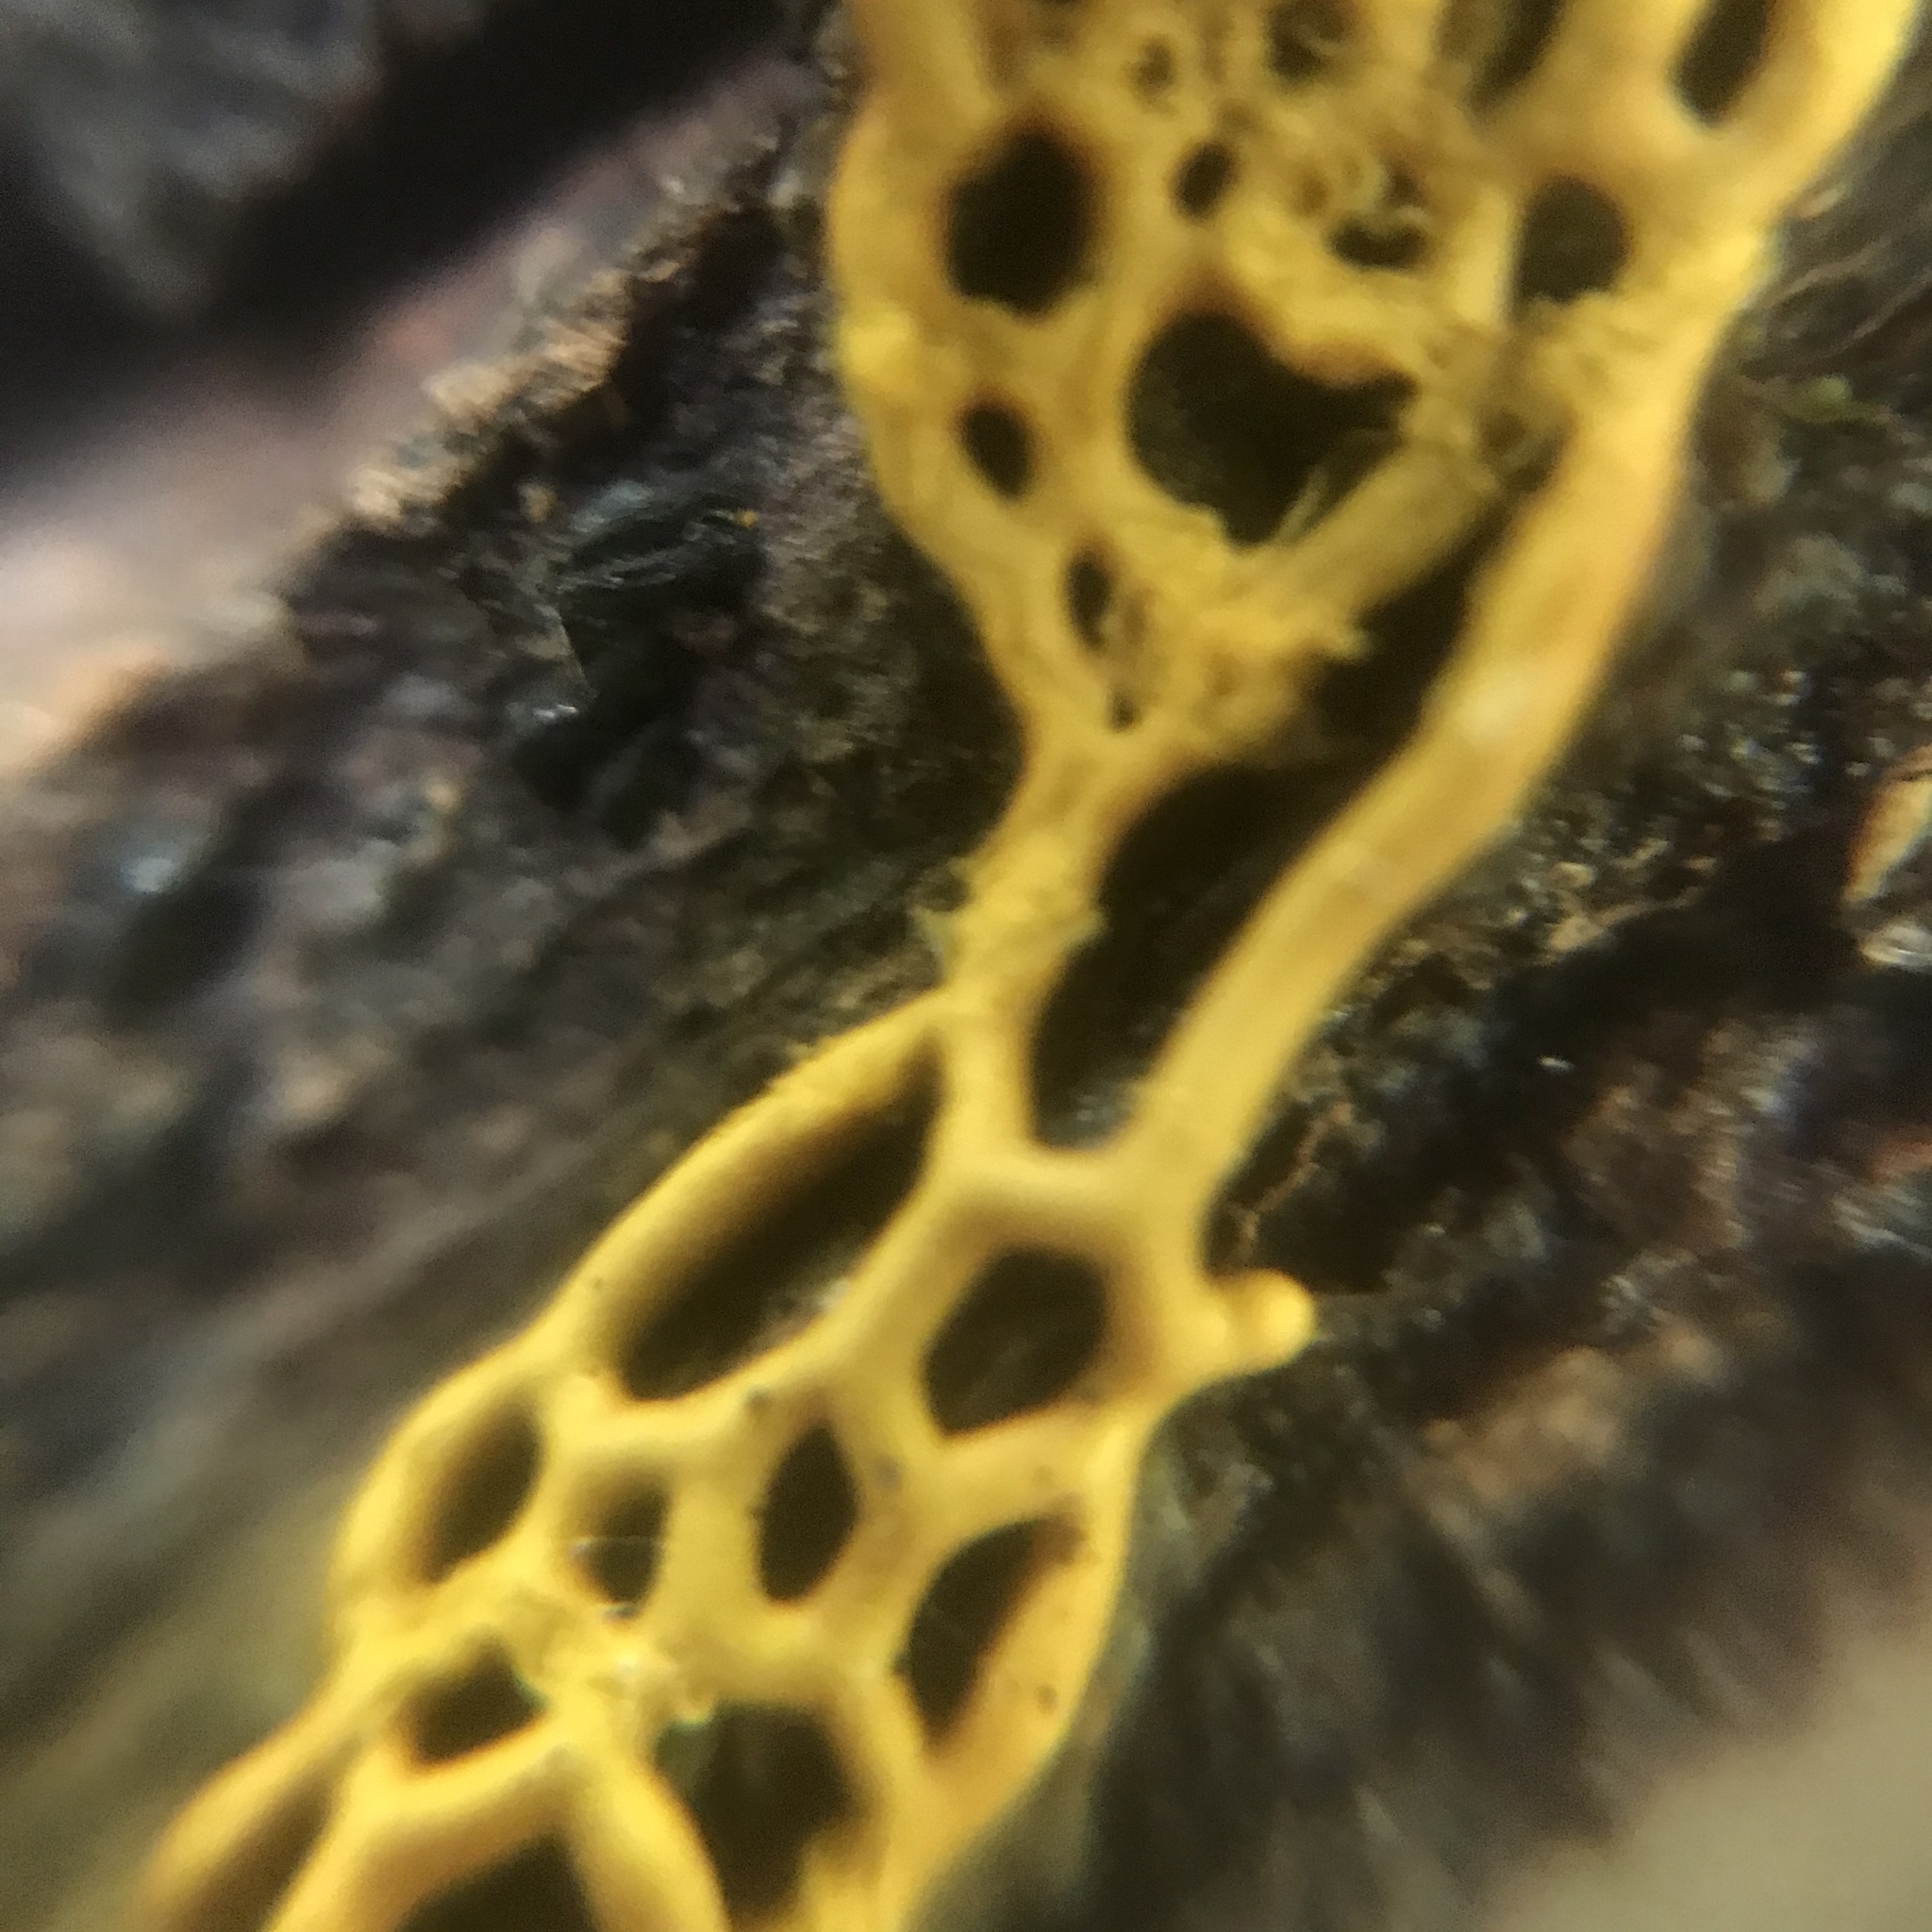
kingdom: Protozoa
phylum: Mycetozoa
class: Myxomycetes
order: Trichiales
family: Arcyriaceae
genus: Hemitrichia
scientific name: Hemitrichia serpula
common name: Pretzel slime mold
